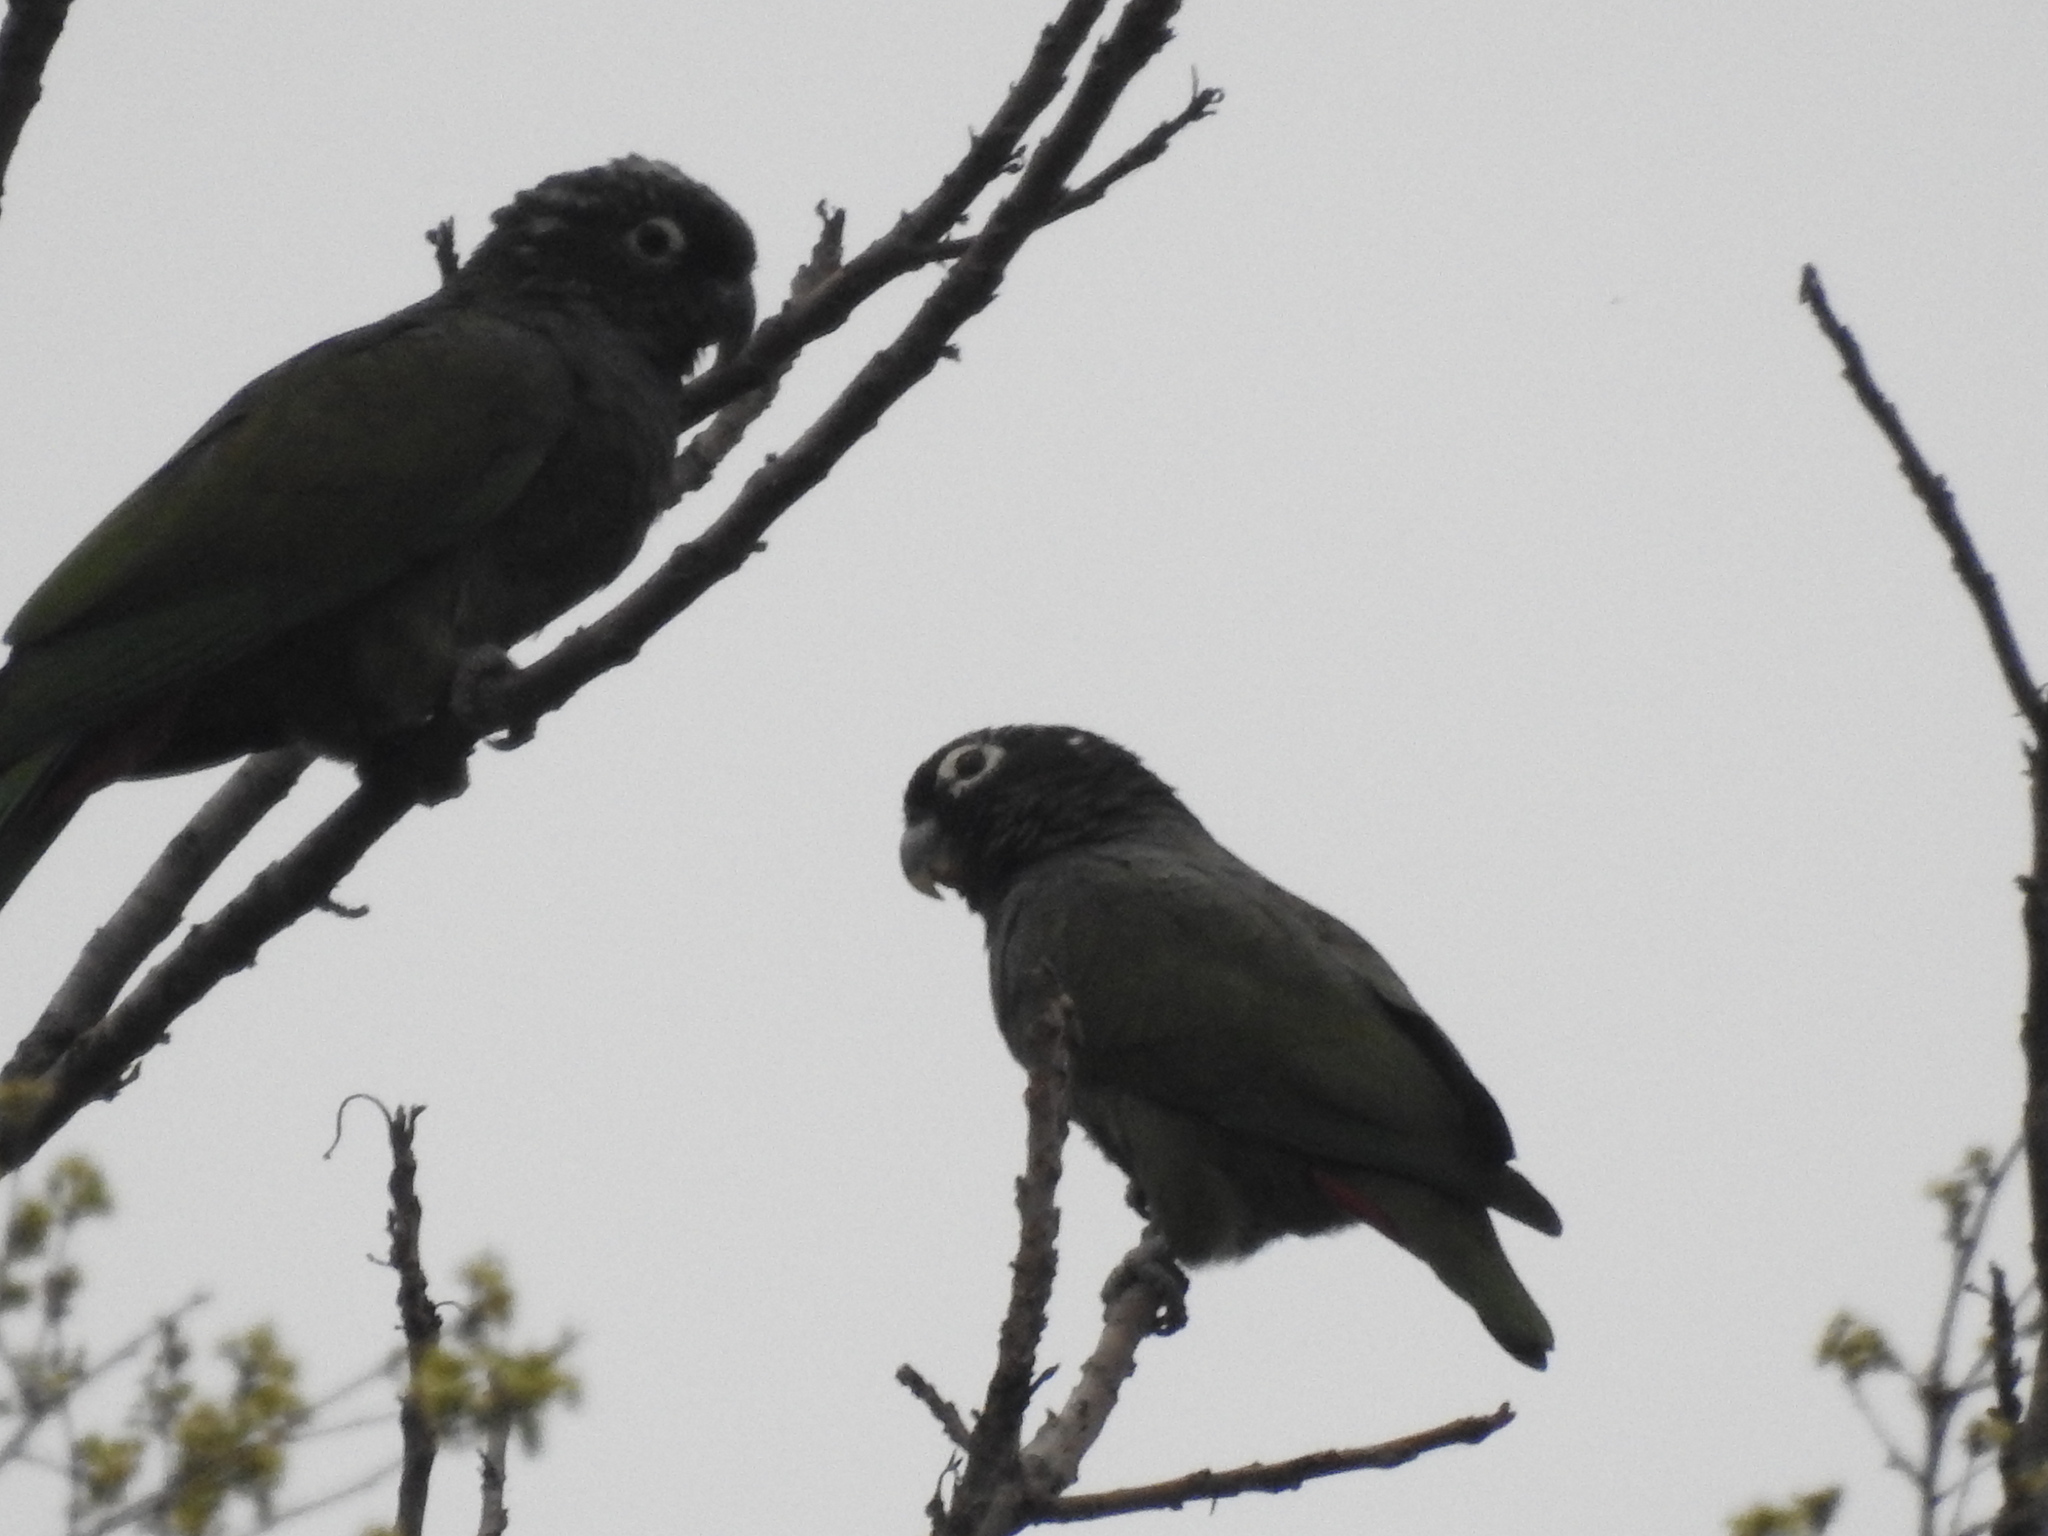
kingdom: Animalia
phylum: Chordata
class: Aves
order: Psittaciformes
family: Psittacidae
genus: Pionus
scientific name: Pionus maximiliani
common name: Scaly-headed parrot
